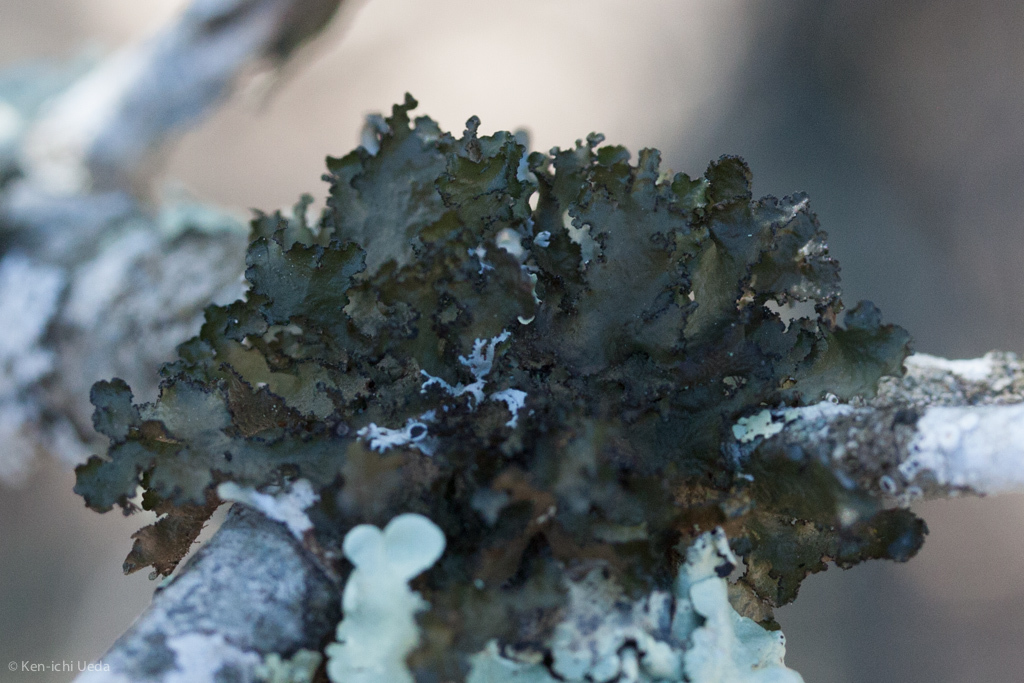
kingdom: Fungi
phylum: Ascomycota
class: Lecanoromycetes
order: Lecanorales
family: Parmeliaceae
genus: Nephromopsis
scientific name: Nephromopsis orbata
